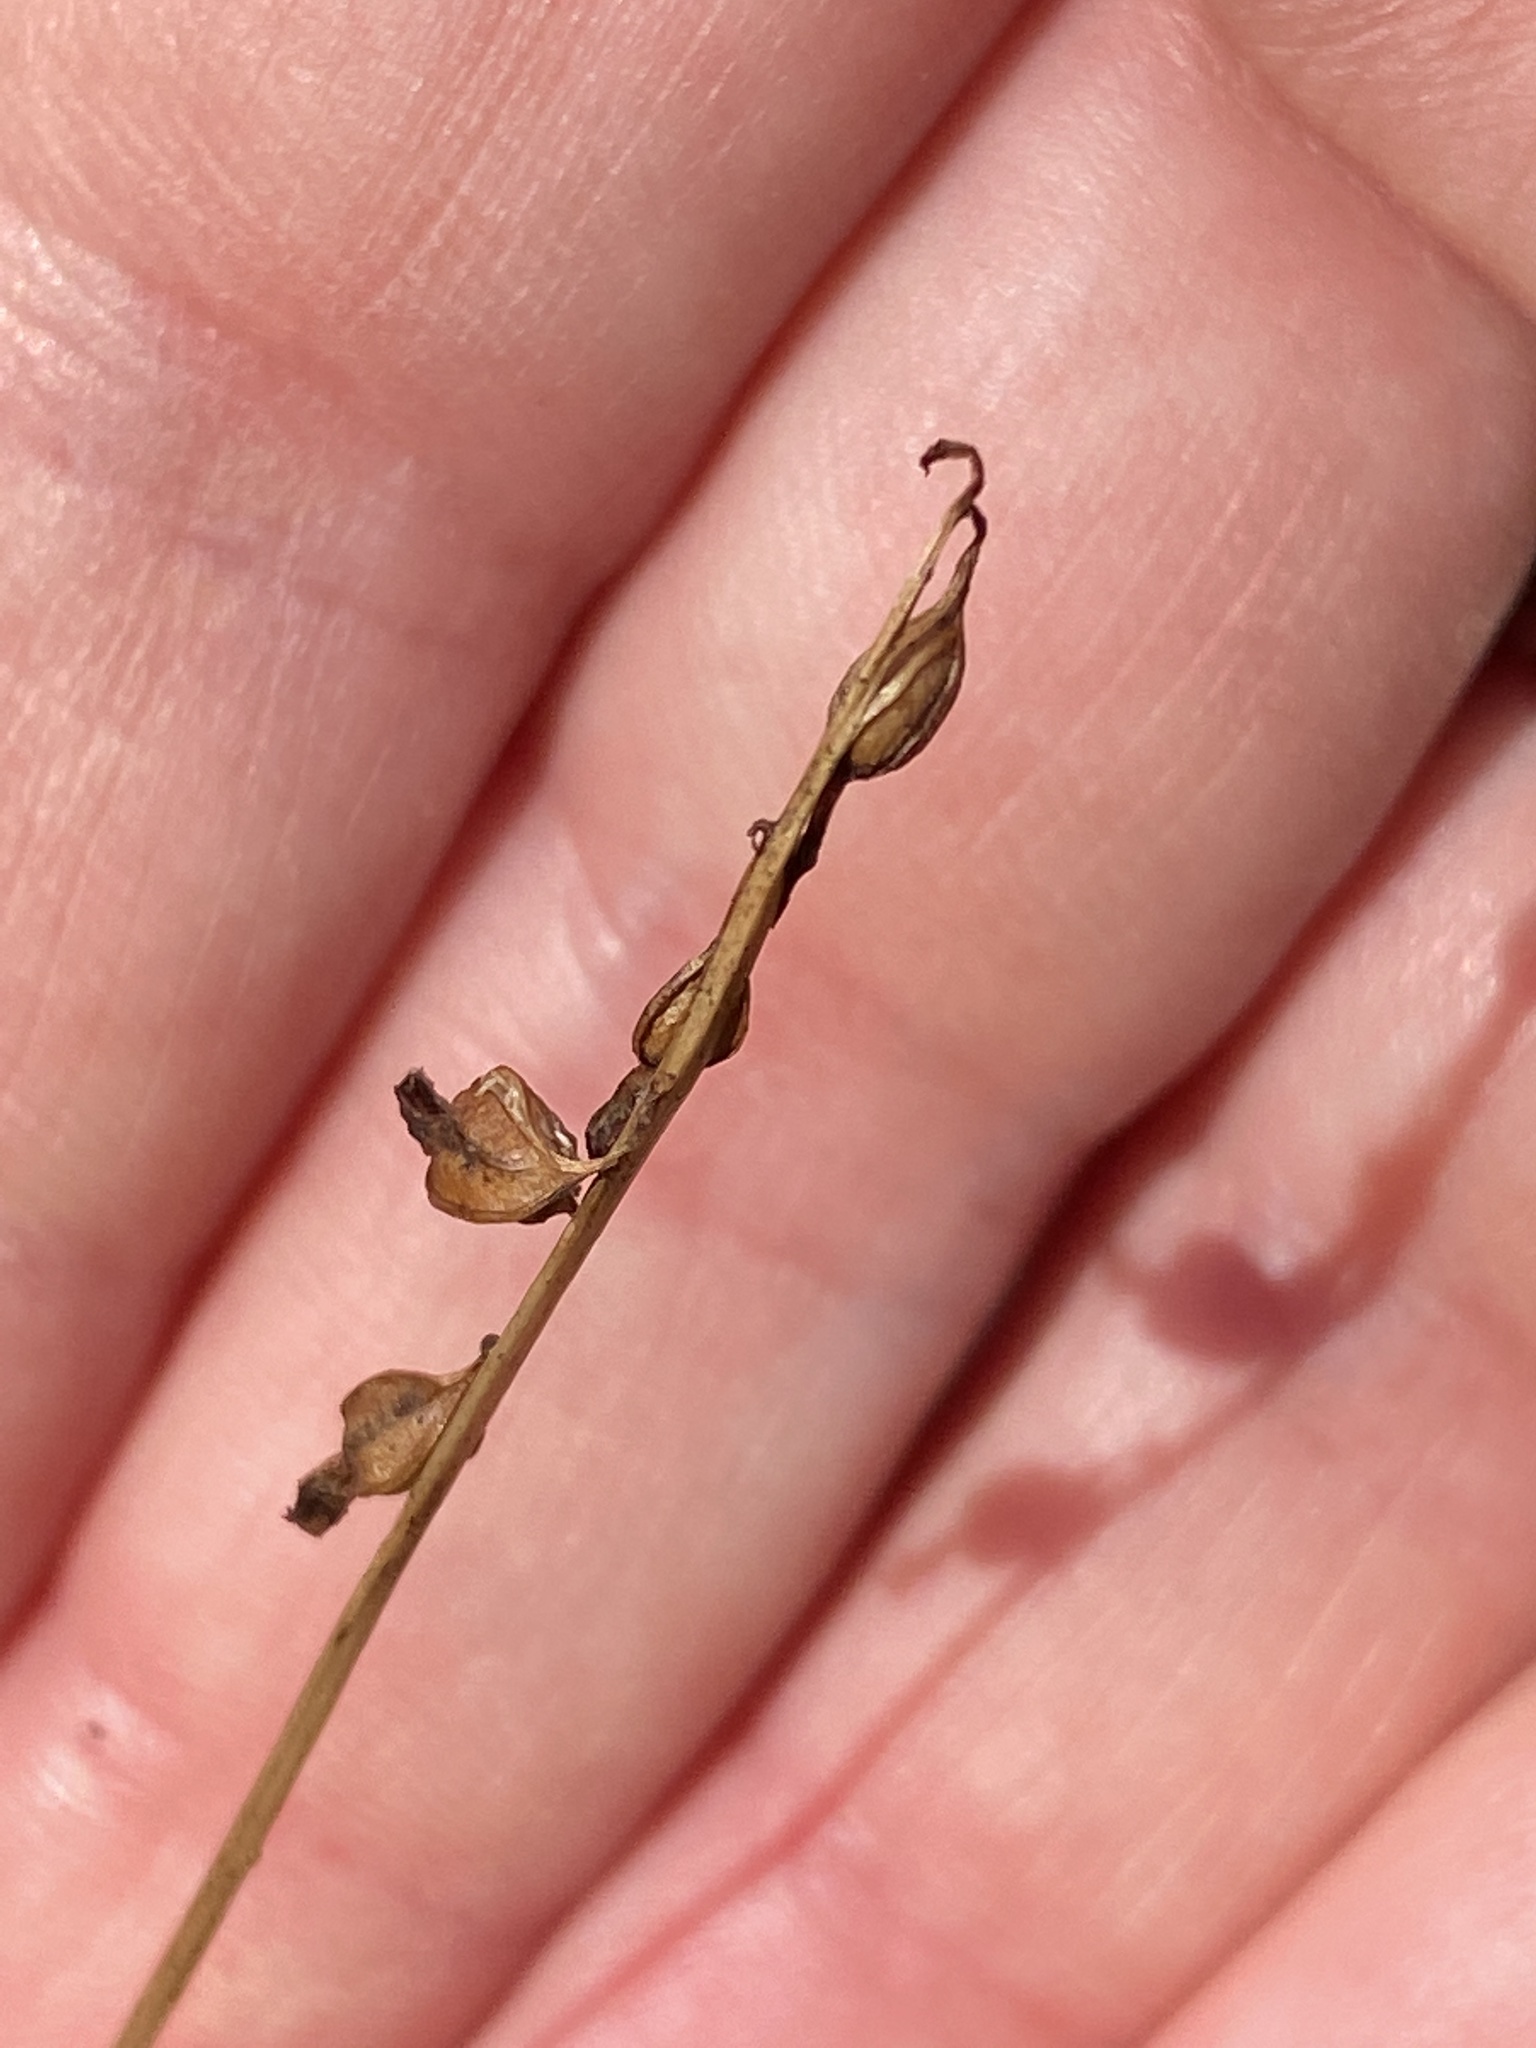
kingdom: Plantae
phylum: Tracheophyta
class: Liliopsida
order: Asparagales
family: Orchidaceae
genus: Corallorhiza
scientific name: Corallorhiza odontorhiza
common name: Autumn coralroot
